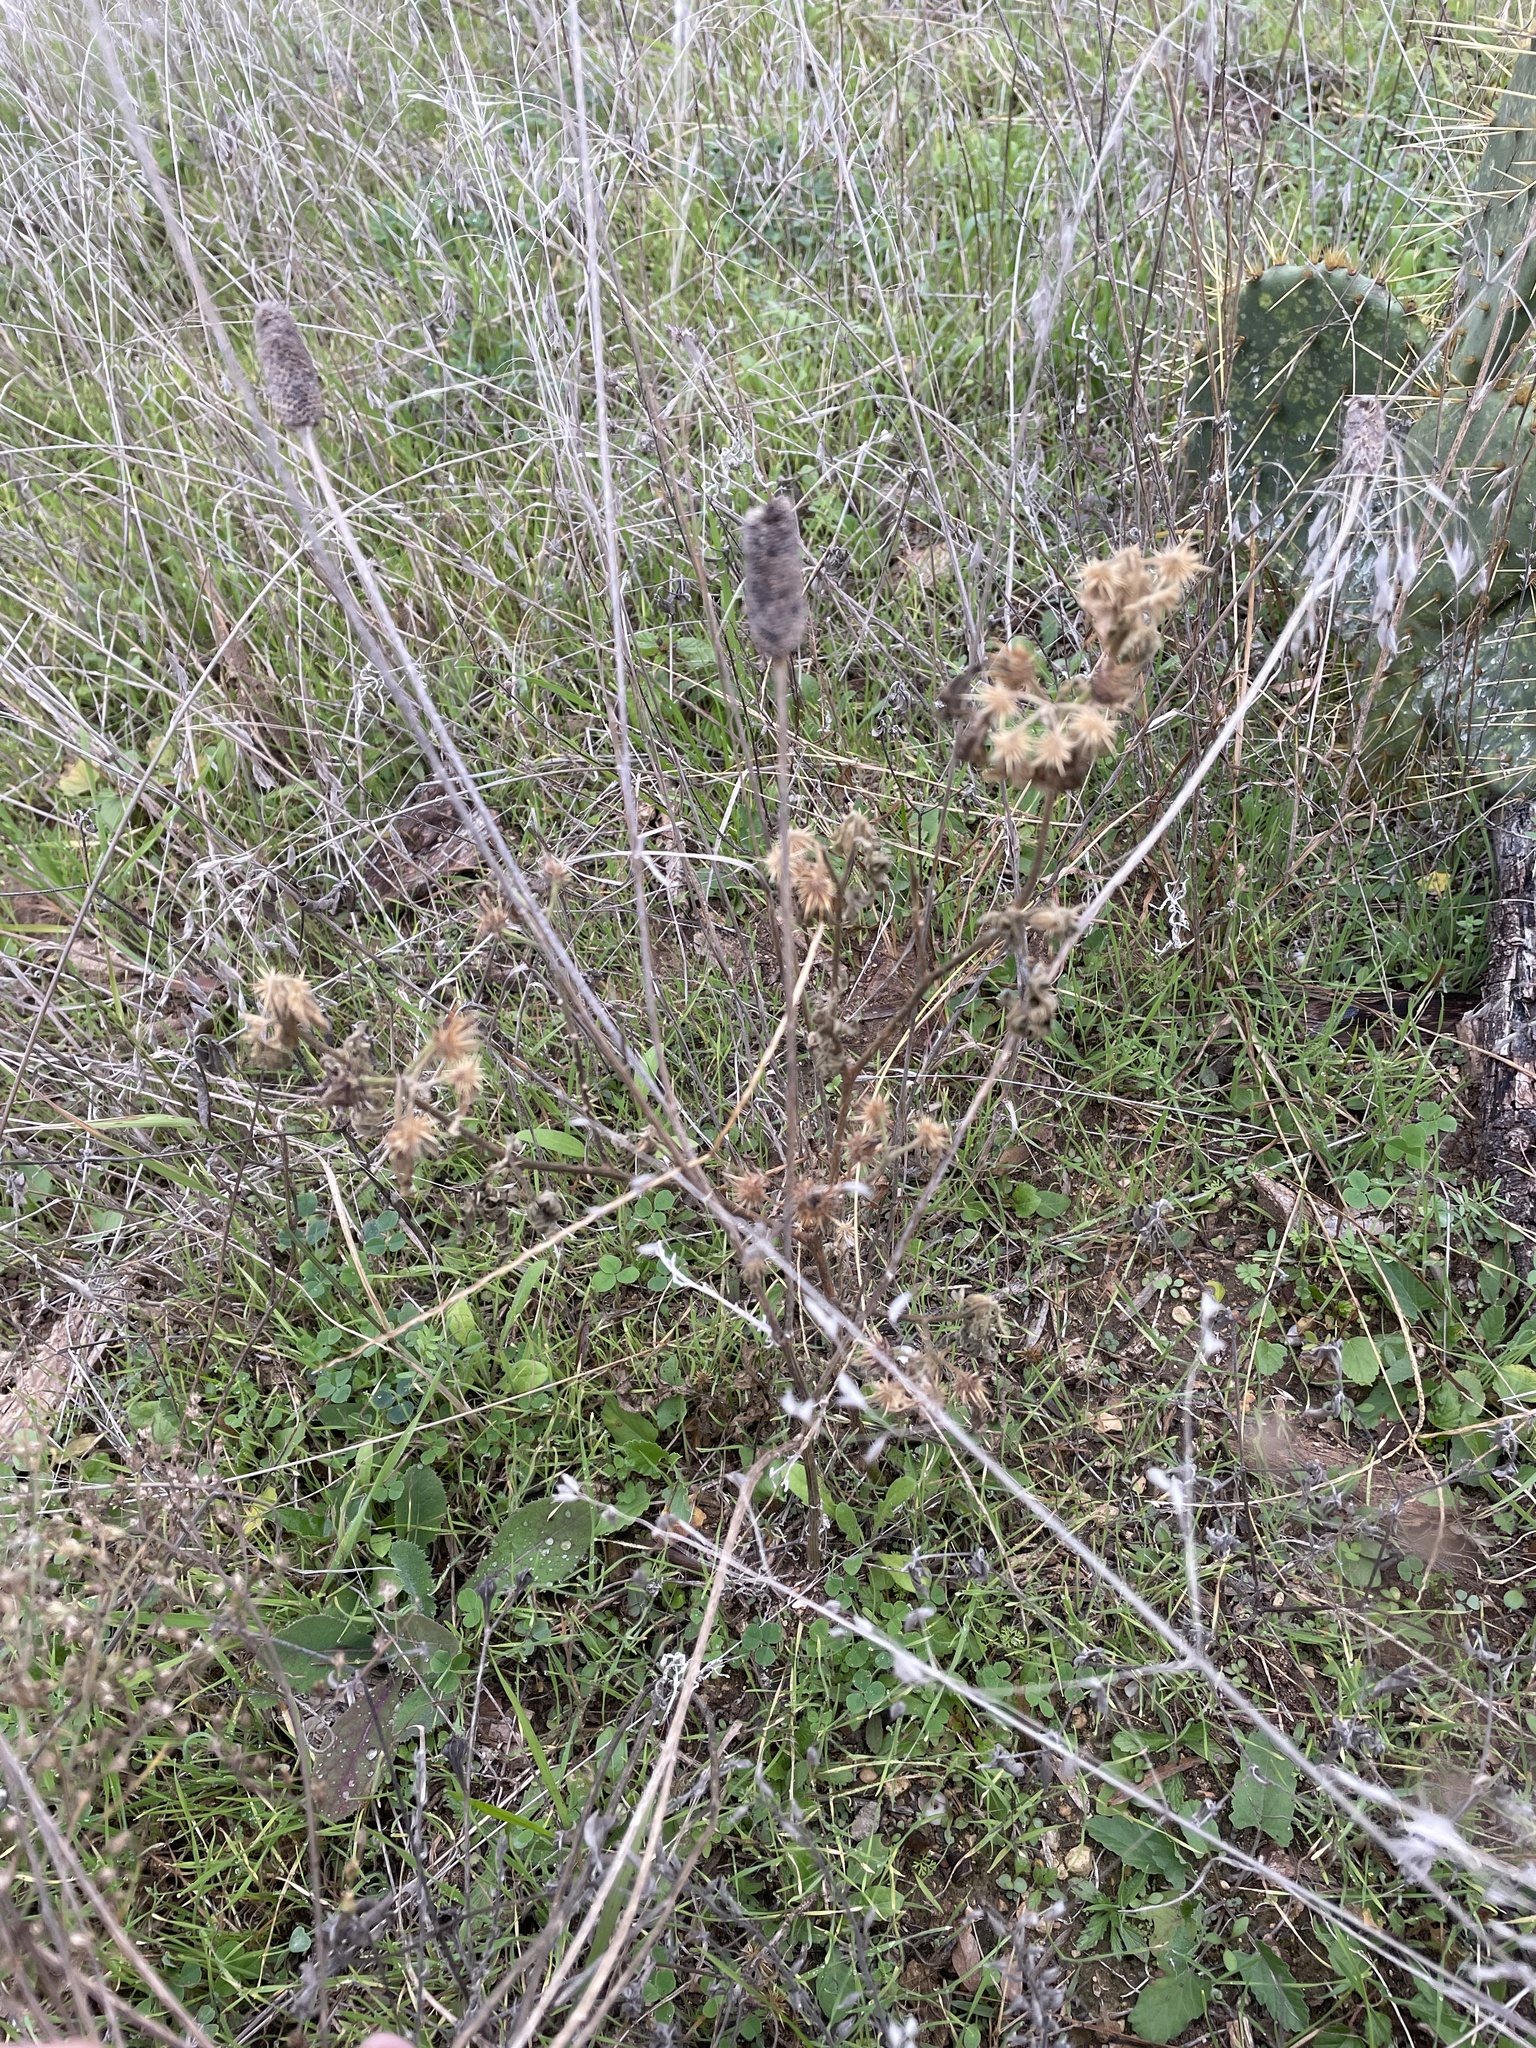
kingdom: Plantae
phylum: Tracheophyta
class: Magnoliopsida
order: Solanales
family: Solanaceae
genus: Solanum
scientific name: Solanum angustifolium
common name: Buffalobur nightshade
